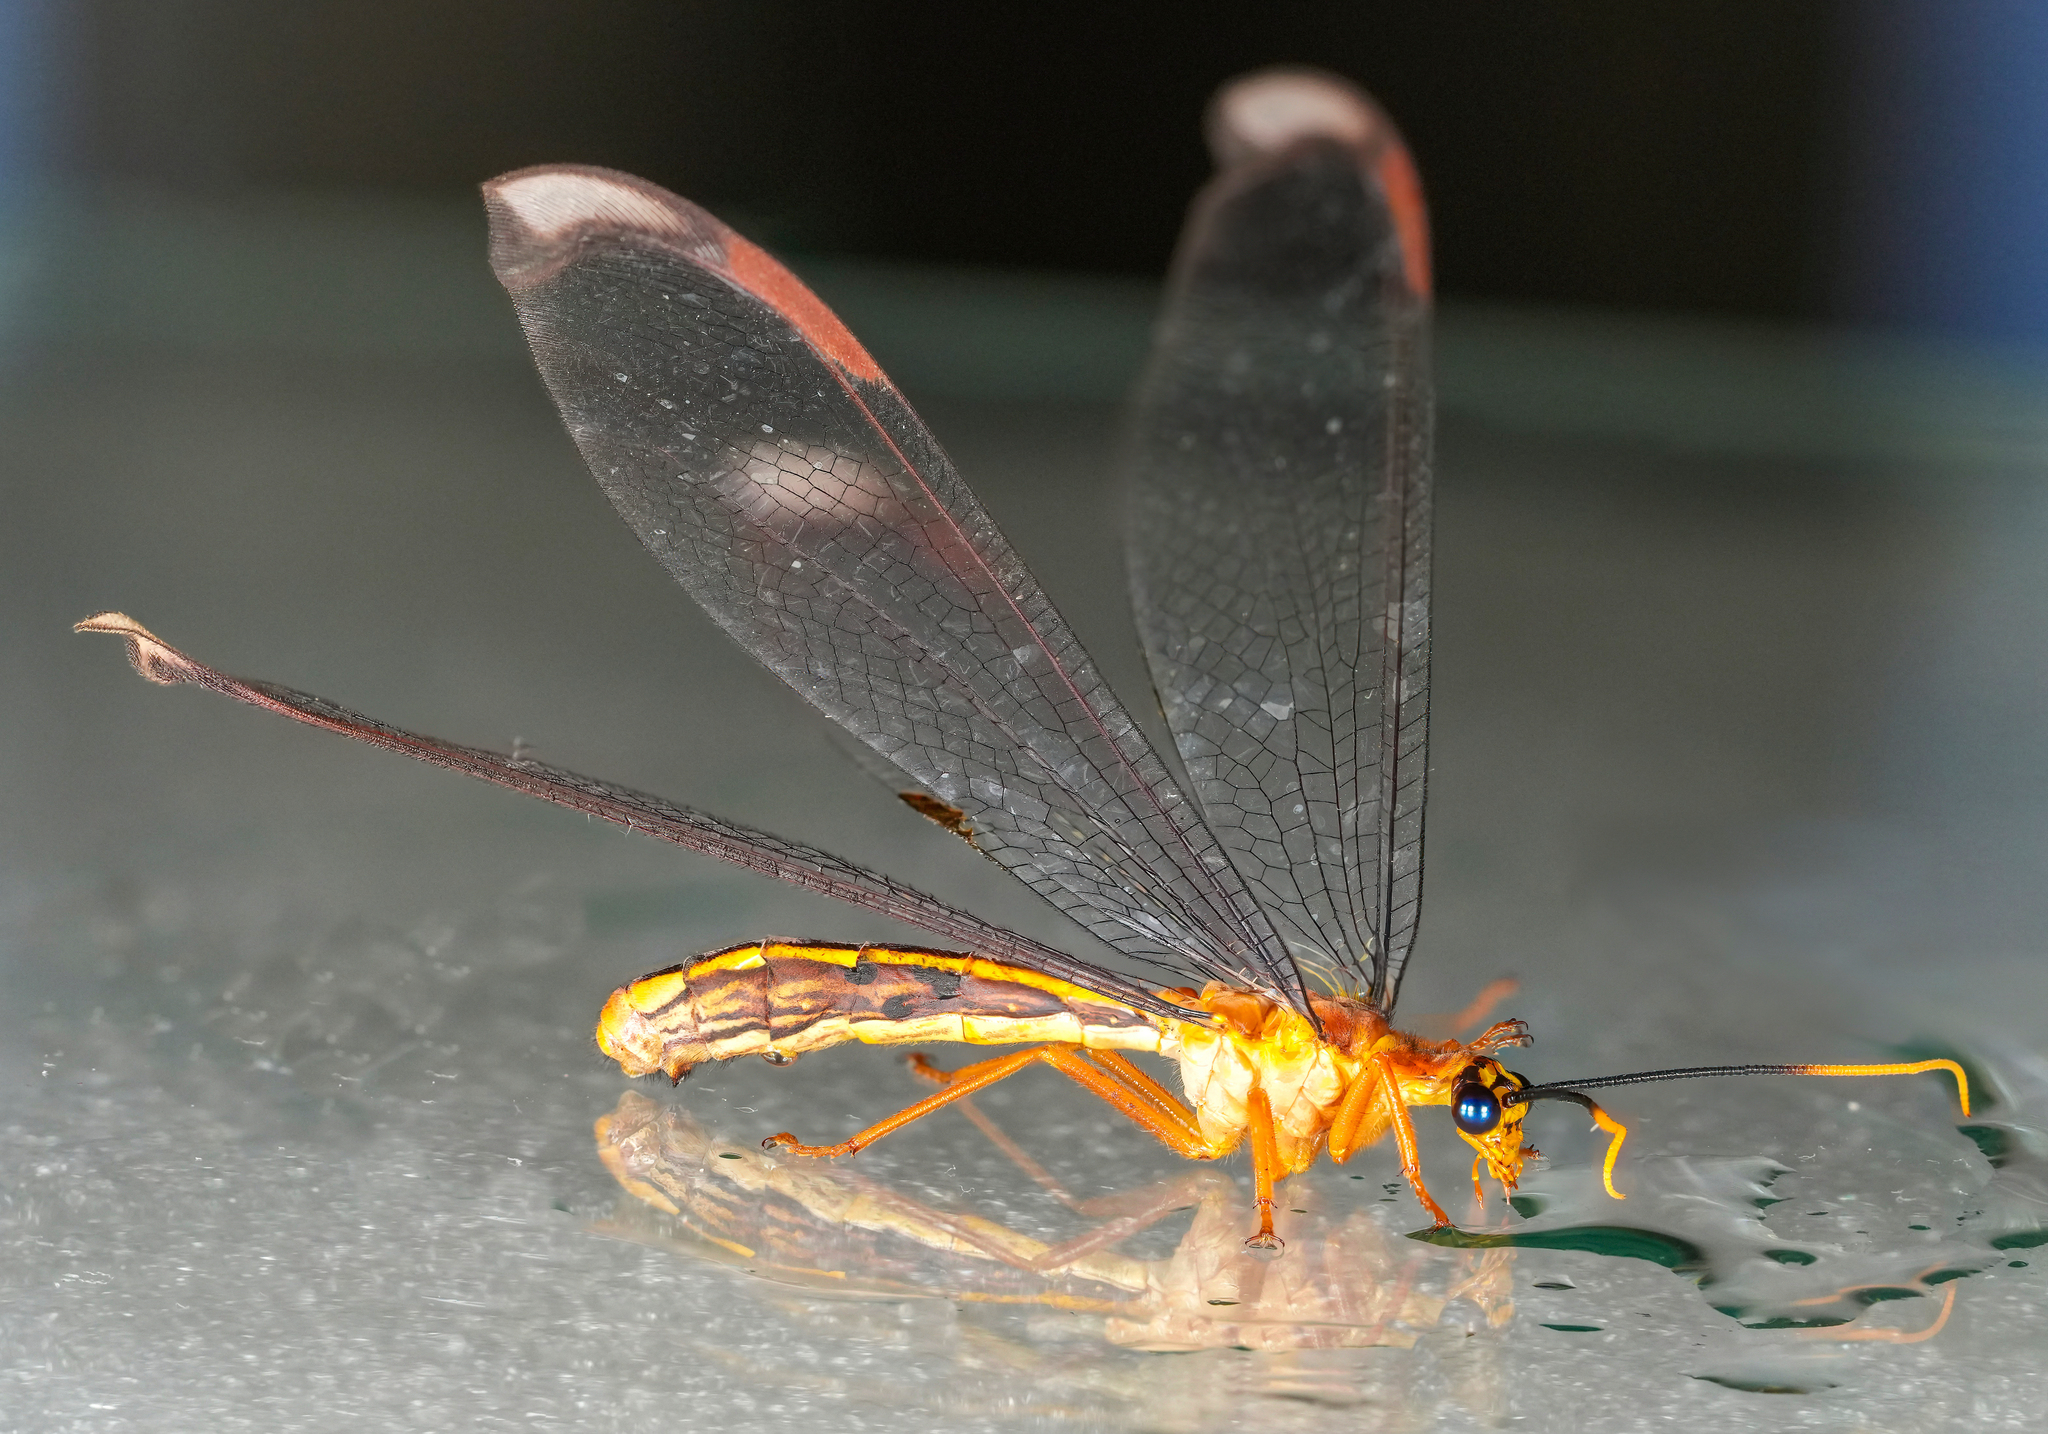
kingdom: Animalia
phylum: Arthropoda
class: Insecta
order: Neuroptera
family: Nymphidae
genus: Nymphes
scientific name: Nymphes myrmeleonoides
